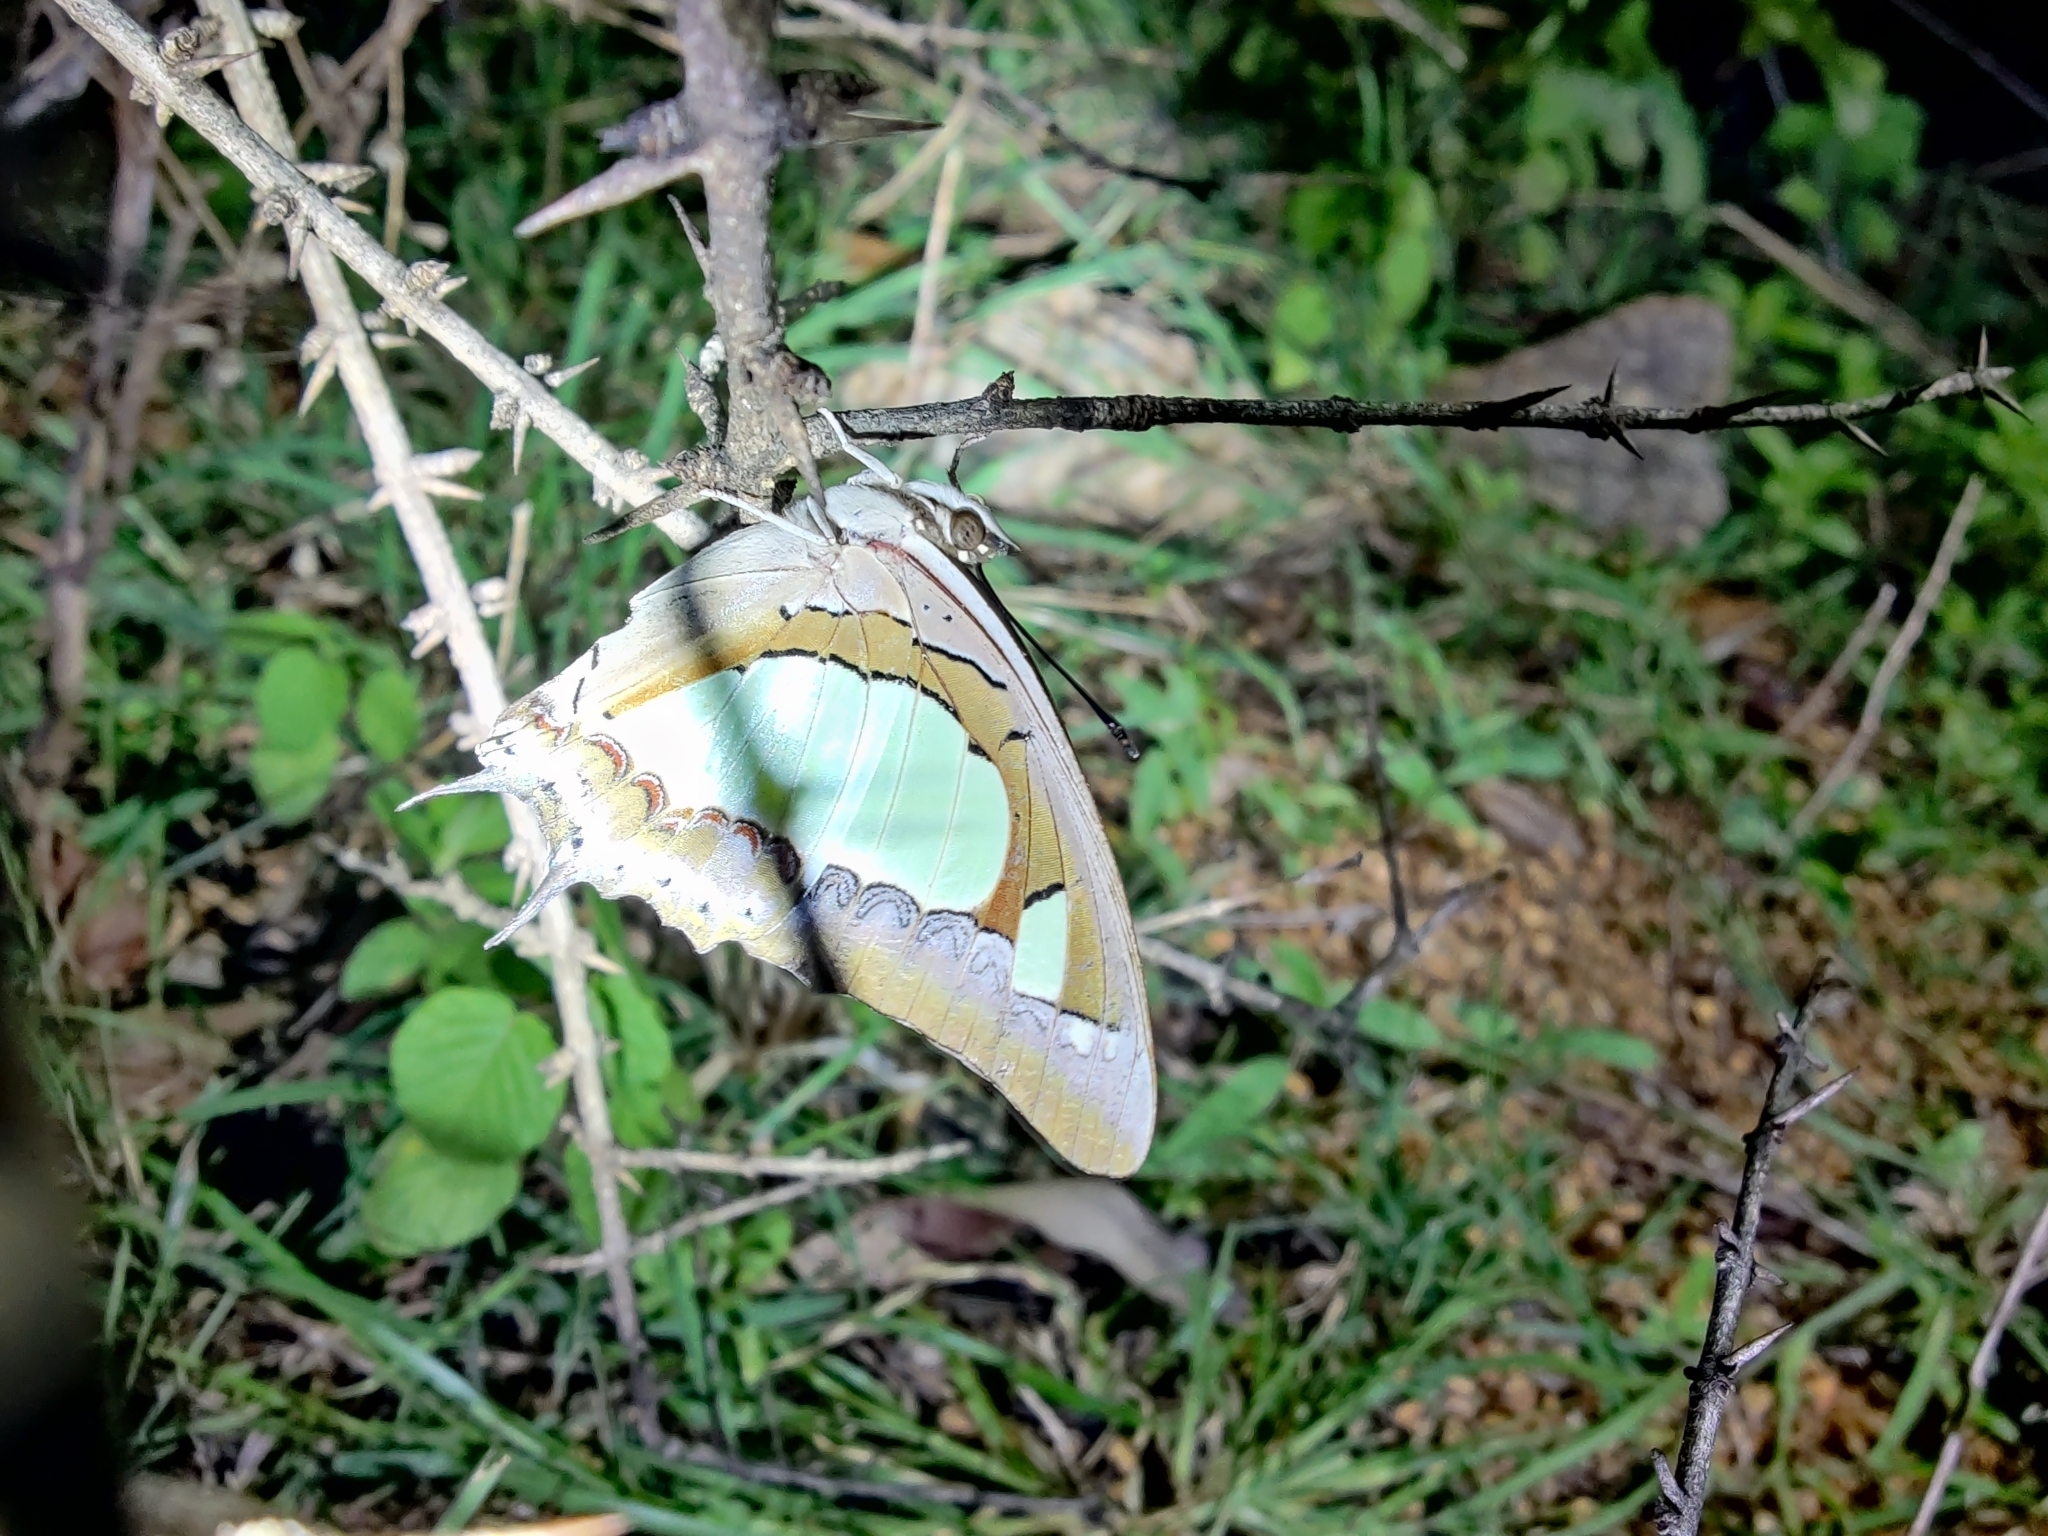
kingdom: Animalia
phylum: Arthropoda
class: Insecta
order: Lepidoptera
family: Nymphalidae
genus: Polyura
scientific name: Polyura agrarius
